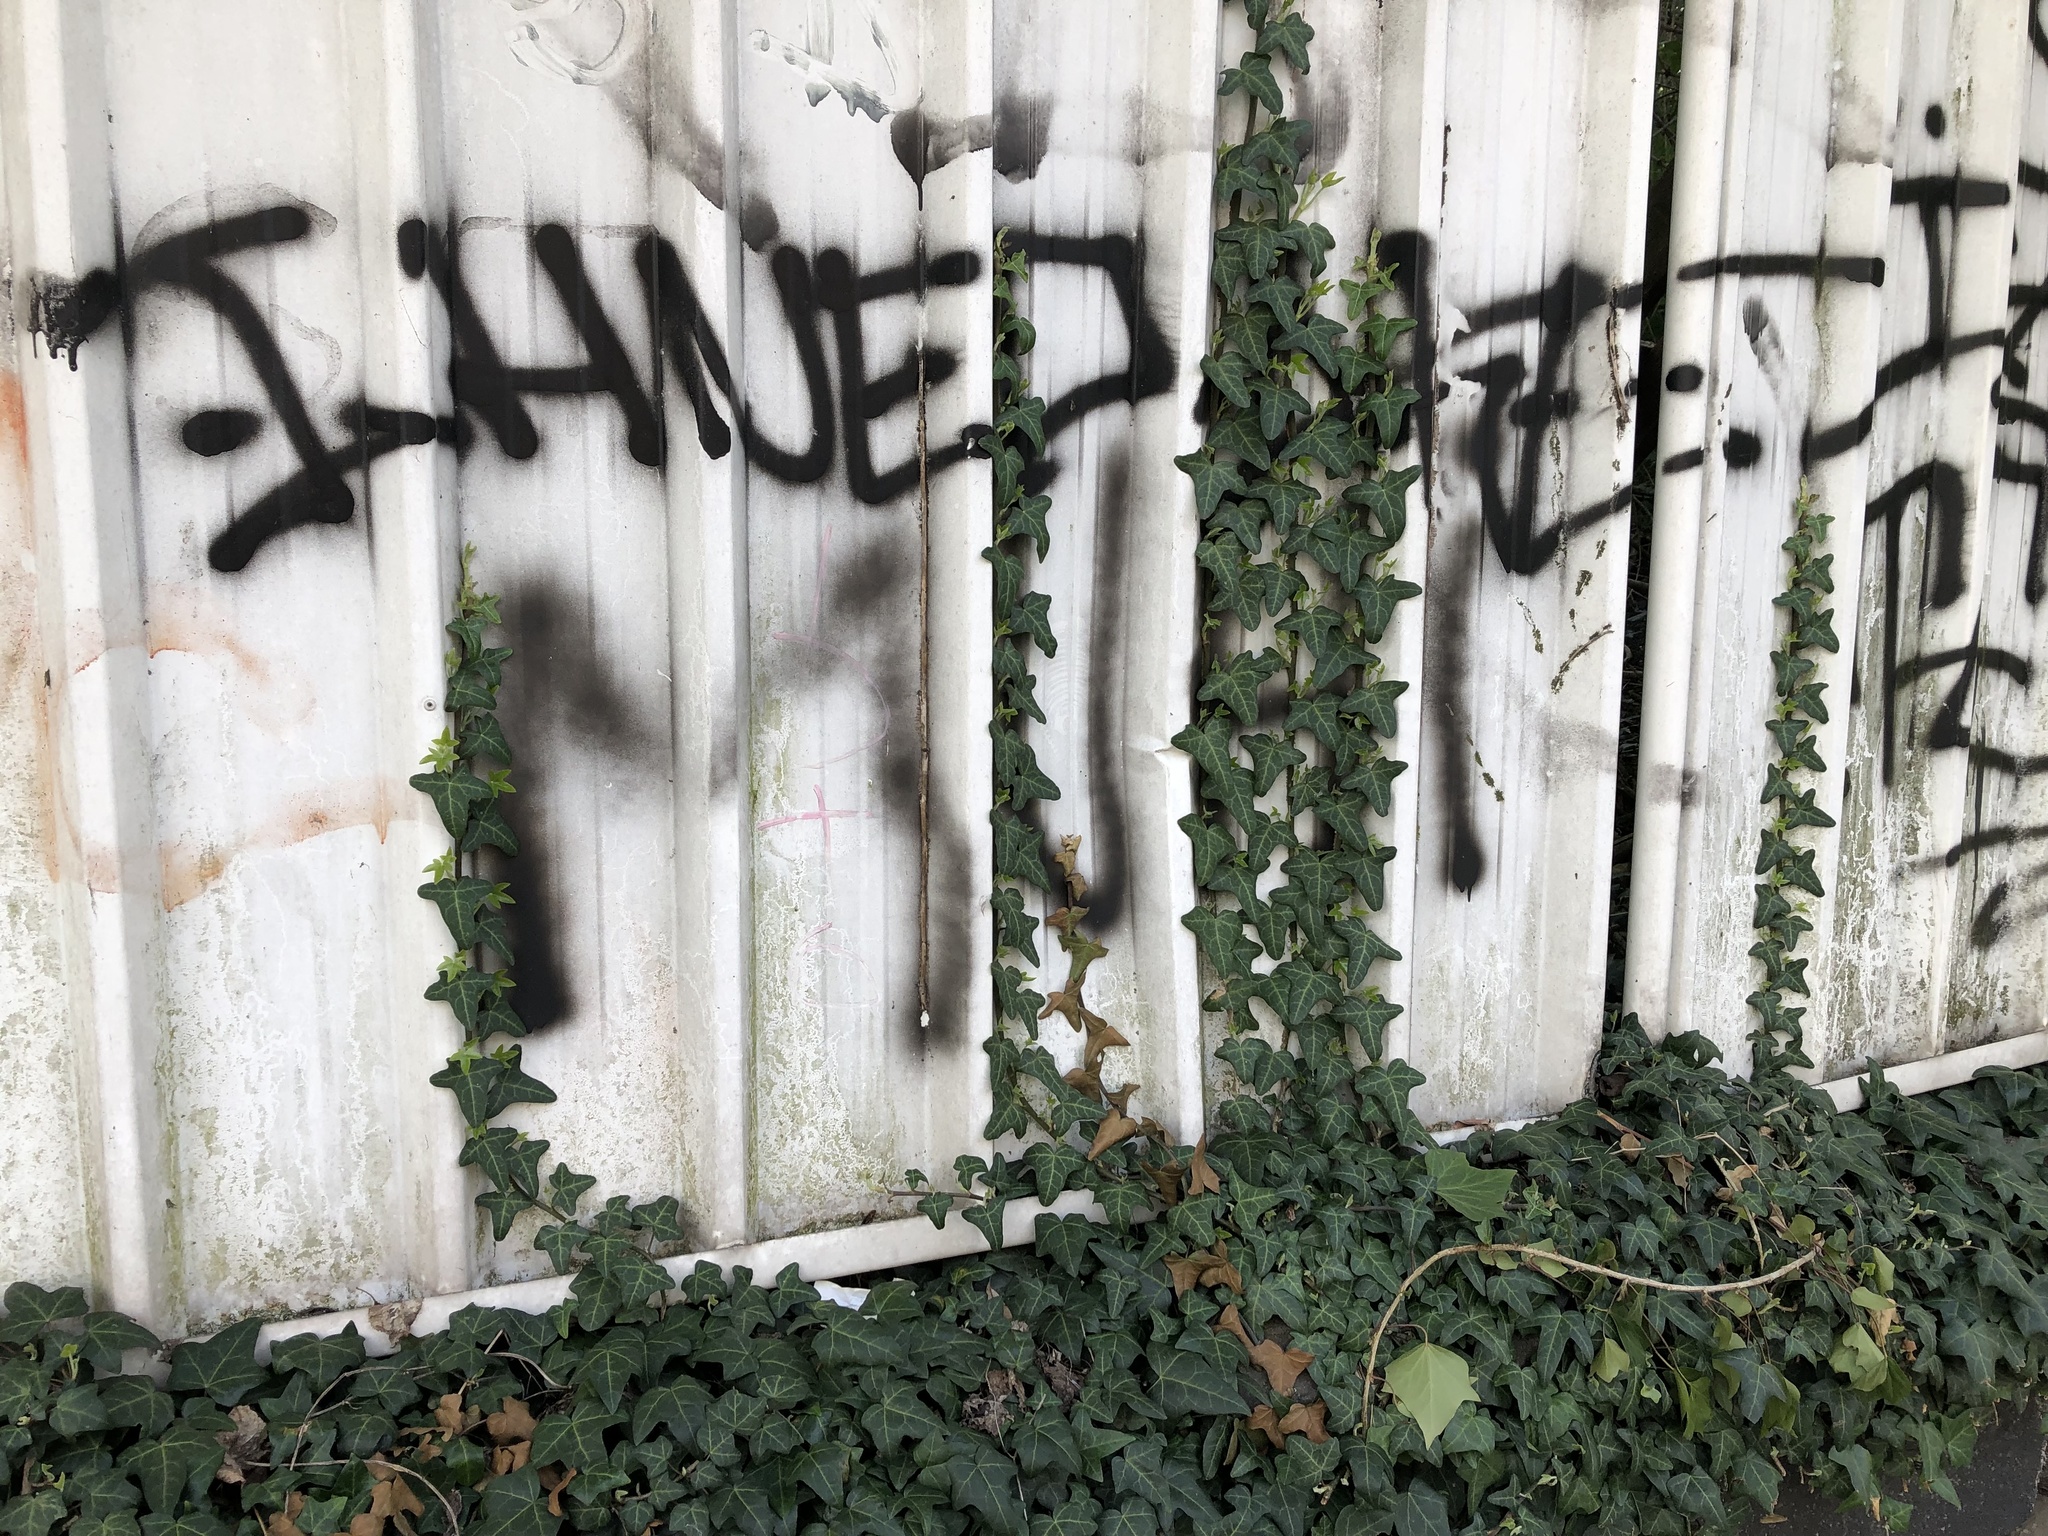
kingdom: Plantae
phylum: Tracheophyta
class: Magnoliopsida
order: Apiales
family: Araliaceae
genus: Hedera
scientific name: Hedera helix
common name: Ivy
